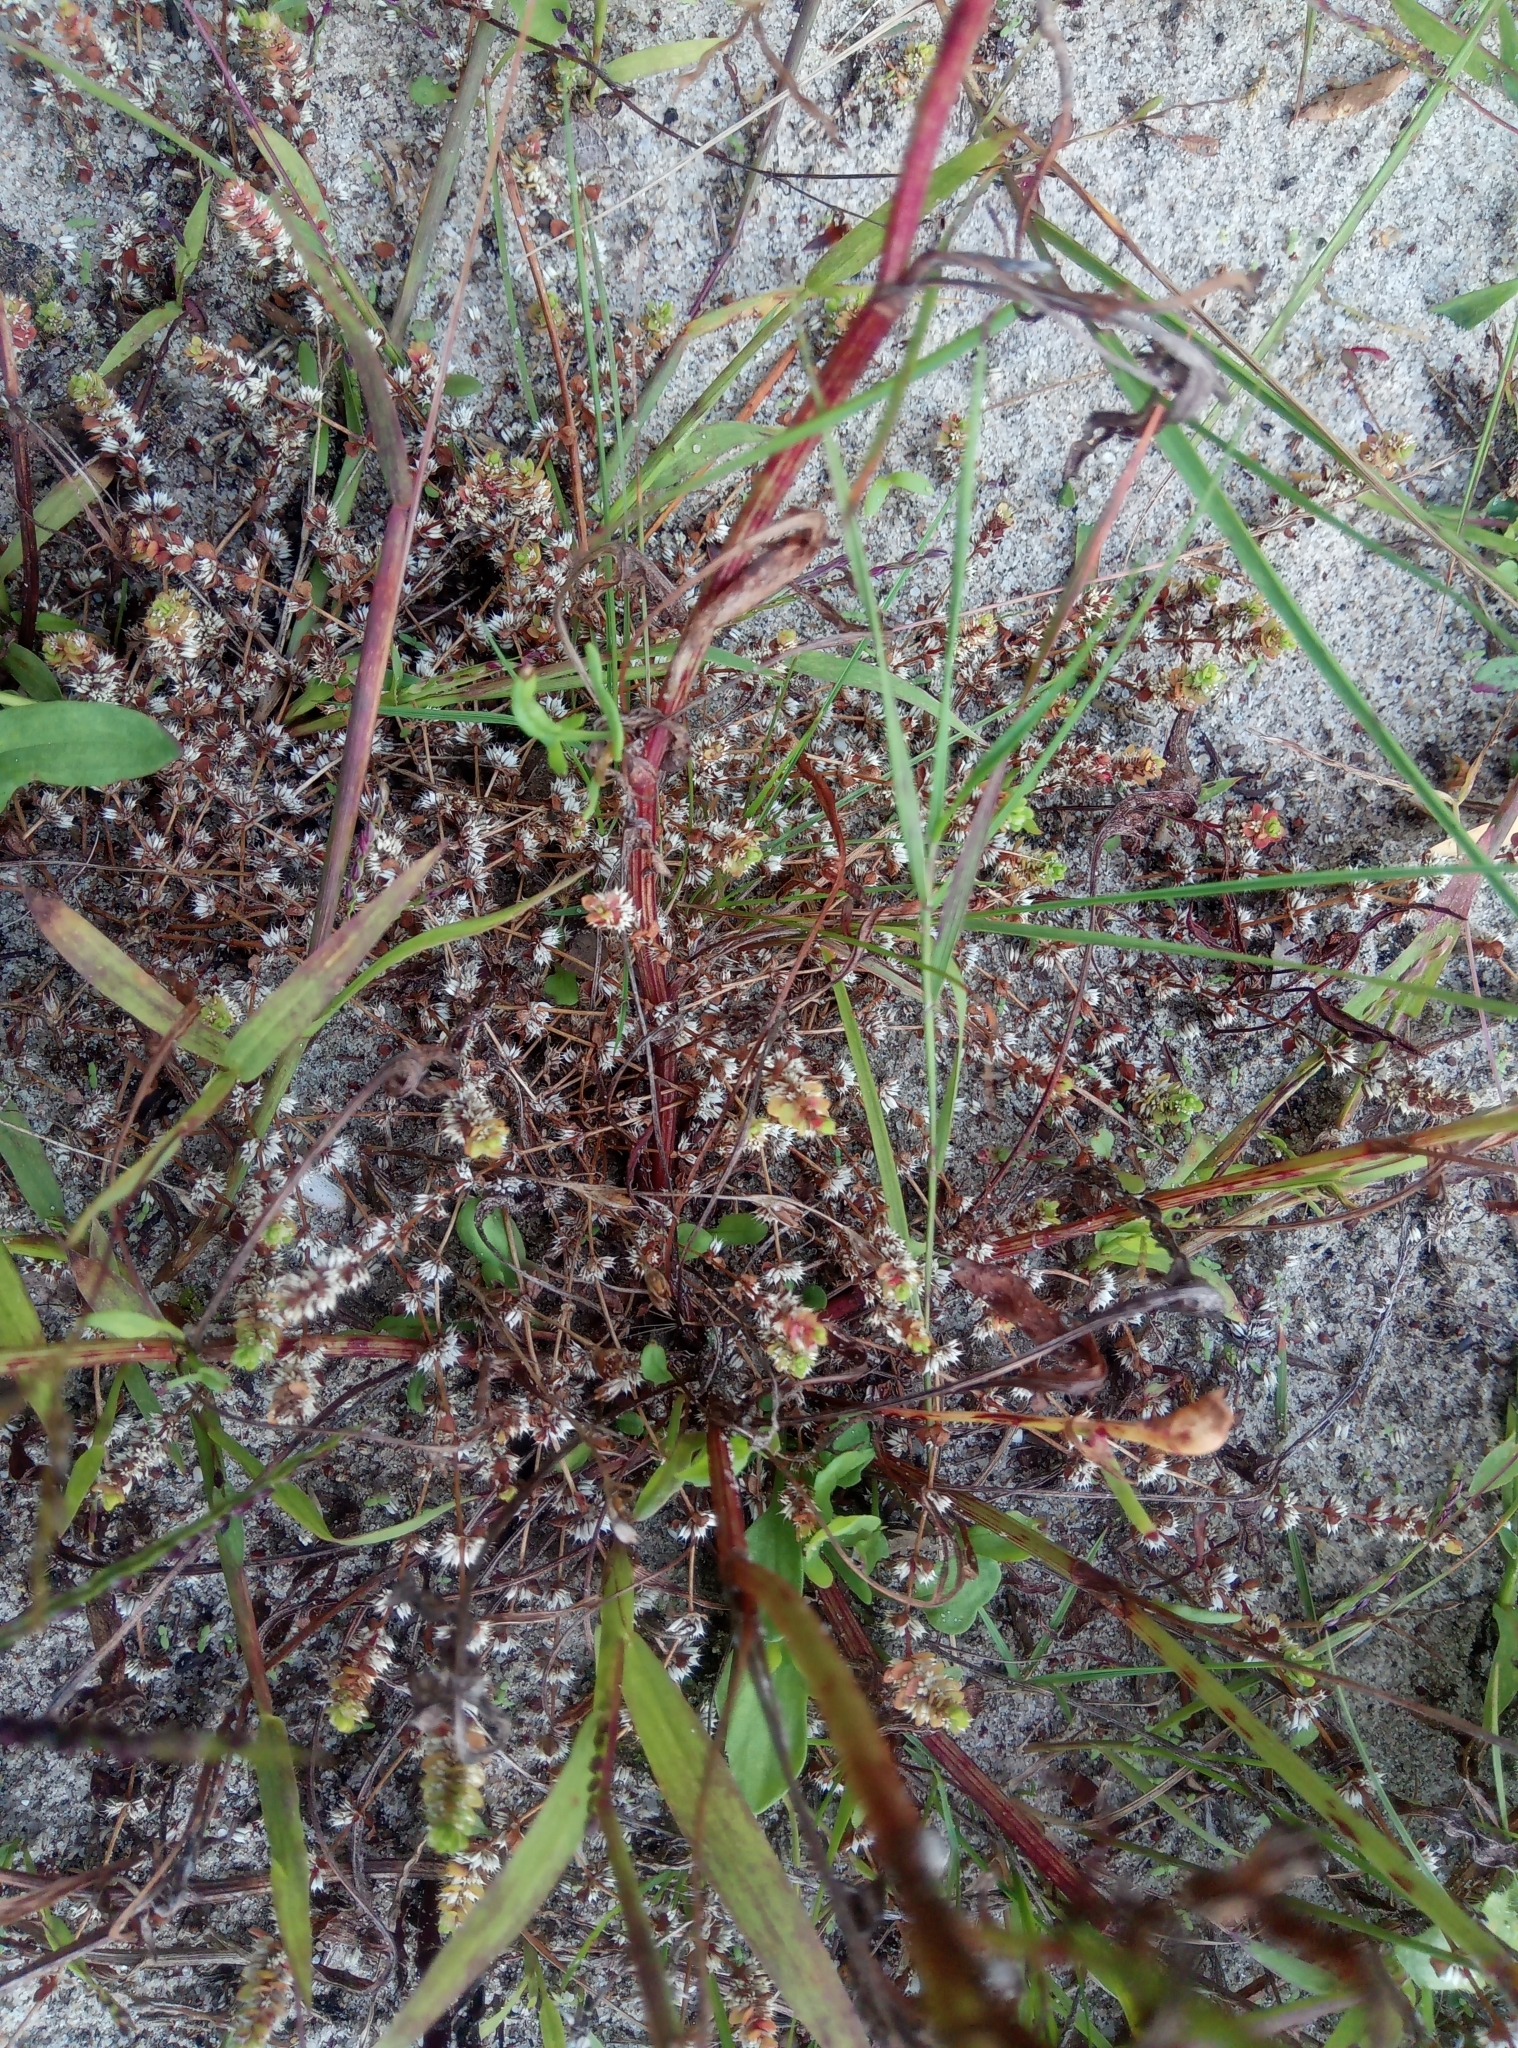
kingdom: Plantae
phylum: Tracheophyta
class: Magnoliopsida
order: Caryophyllales
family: Caryophyllaceae
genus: Illecebrum
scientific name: Illecebrum verticillatum
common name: Coral necklace
